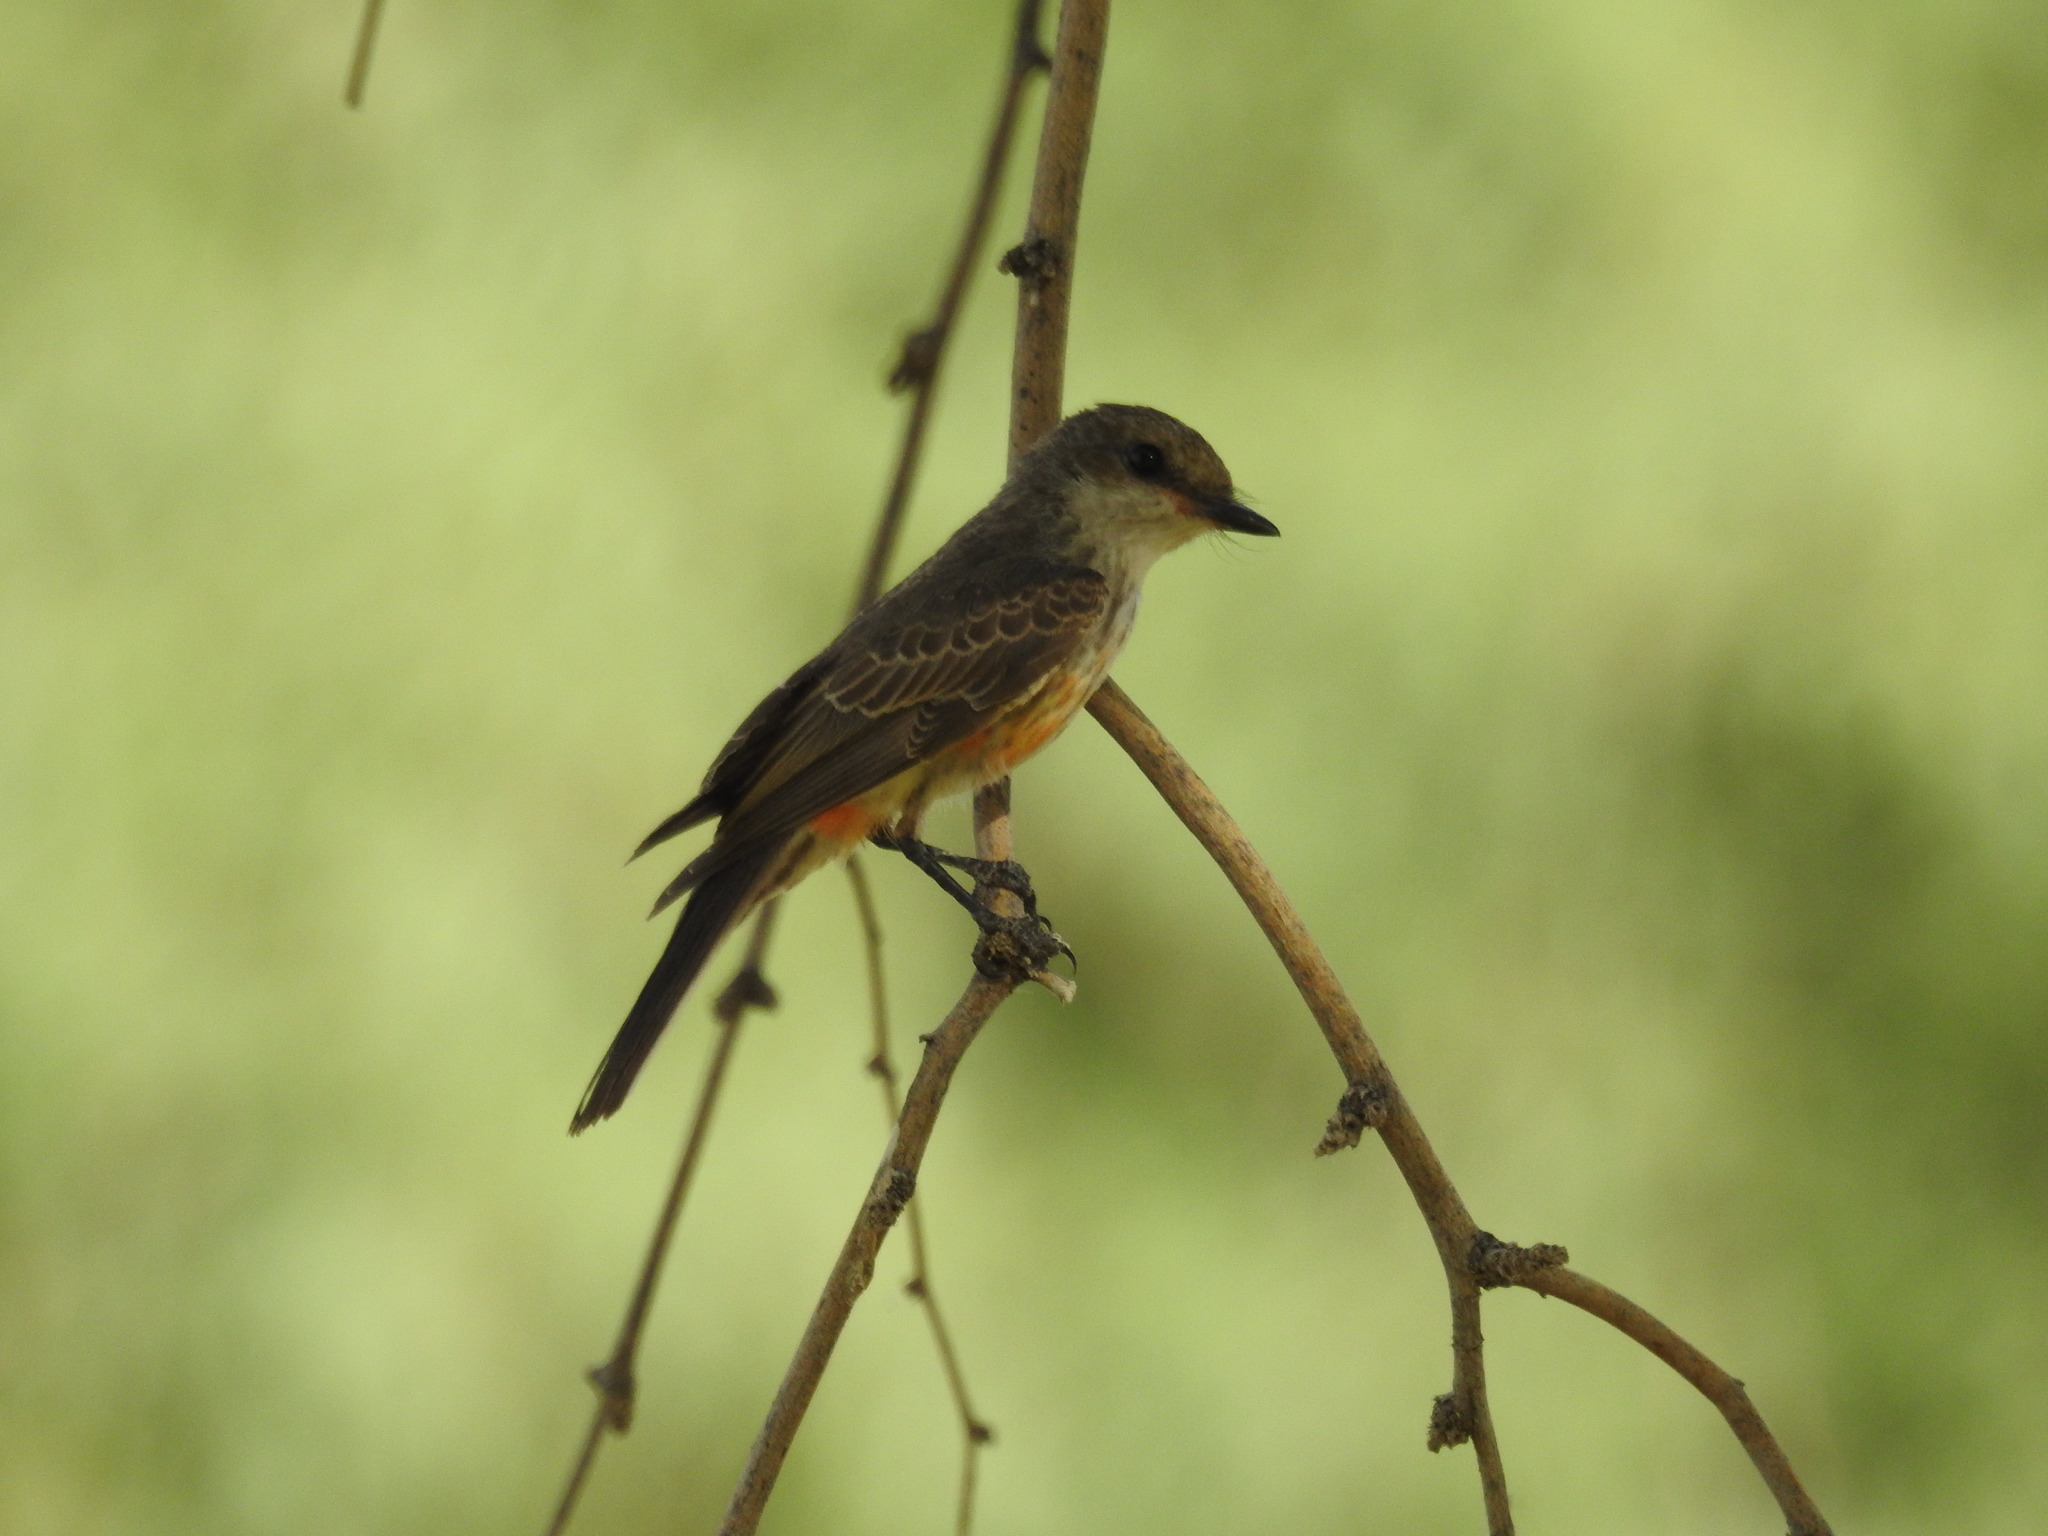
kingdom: Animalia
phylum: Chordata
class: Aves
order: Passeriformes
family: Tyrannidae
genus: Pyrocephalus
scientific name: Pyrocephalus rubinus
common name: Vermilion flycatcher
